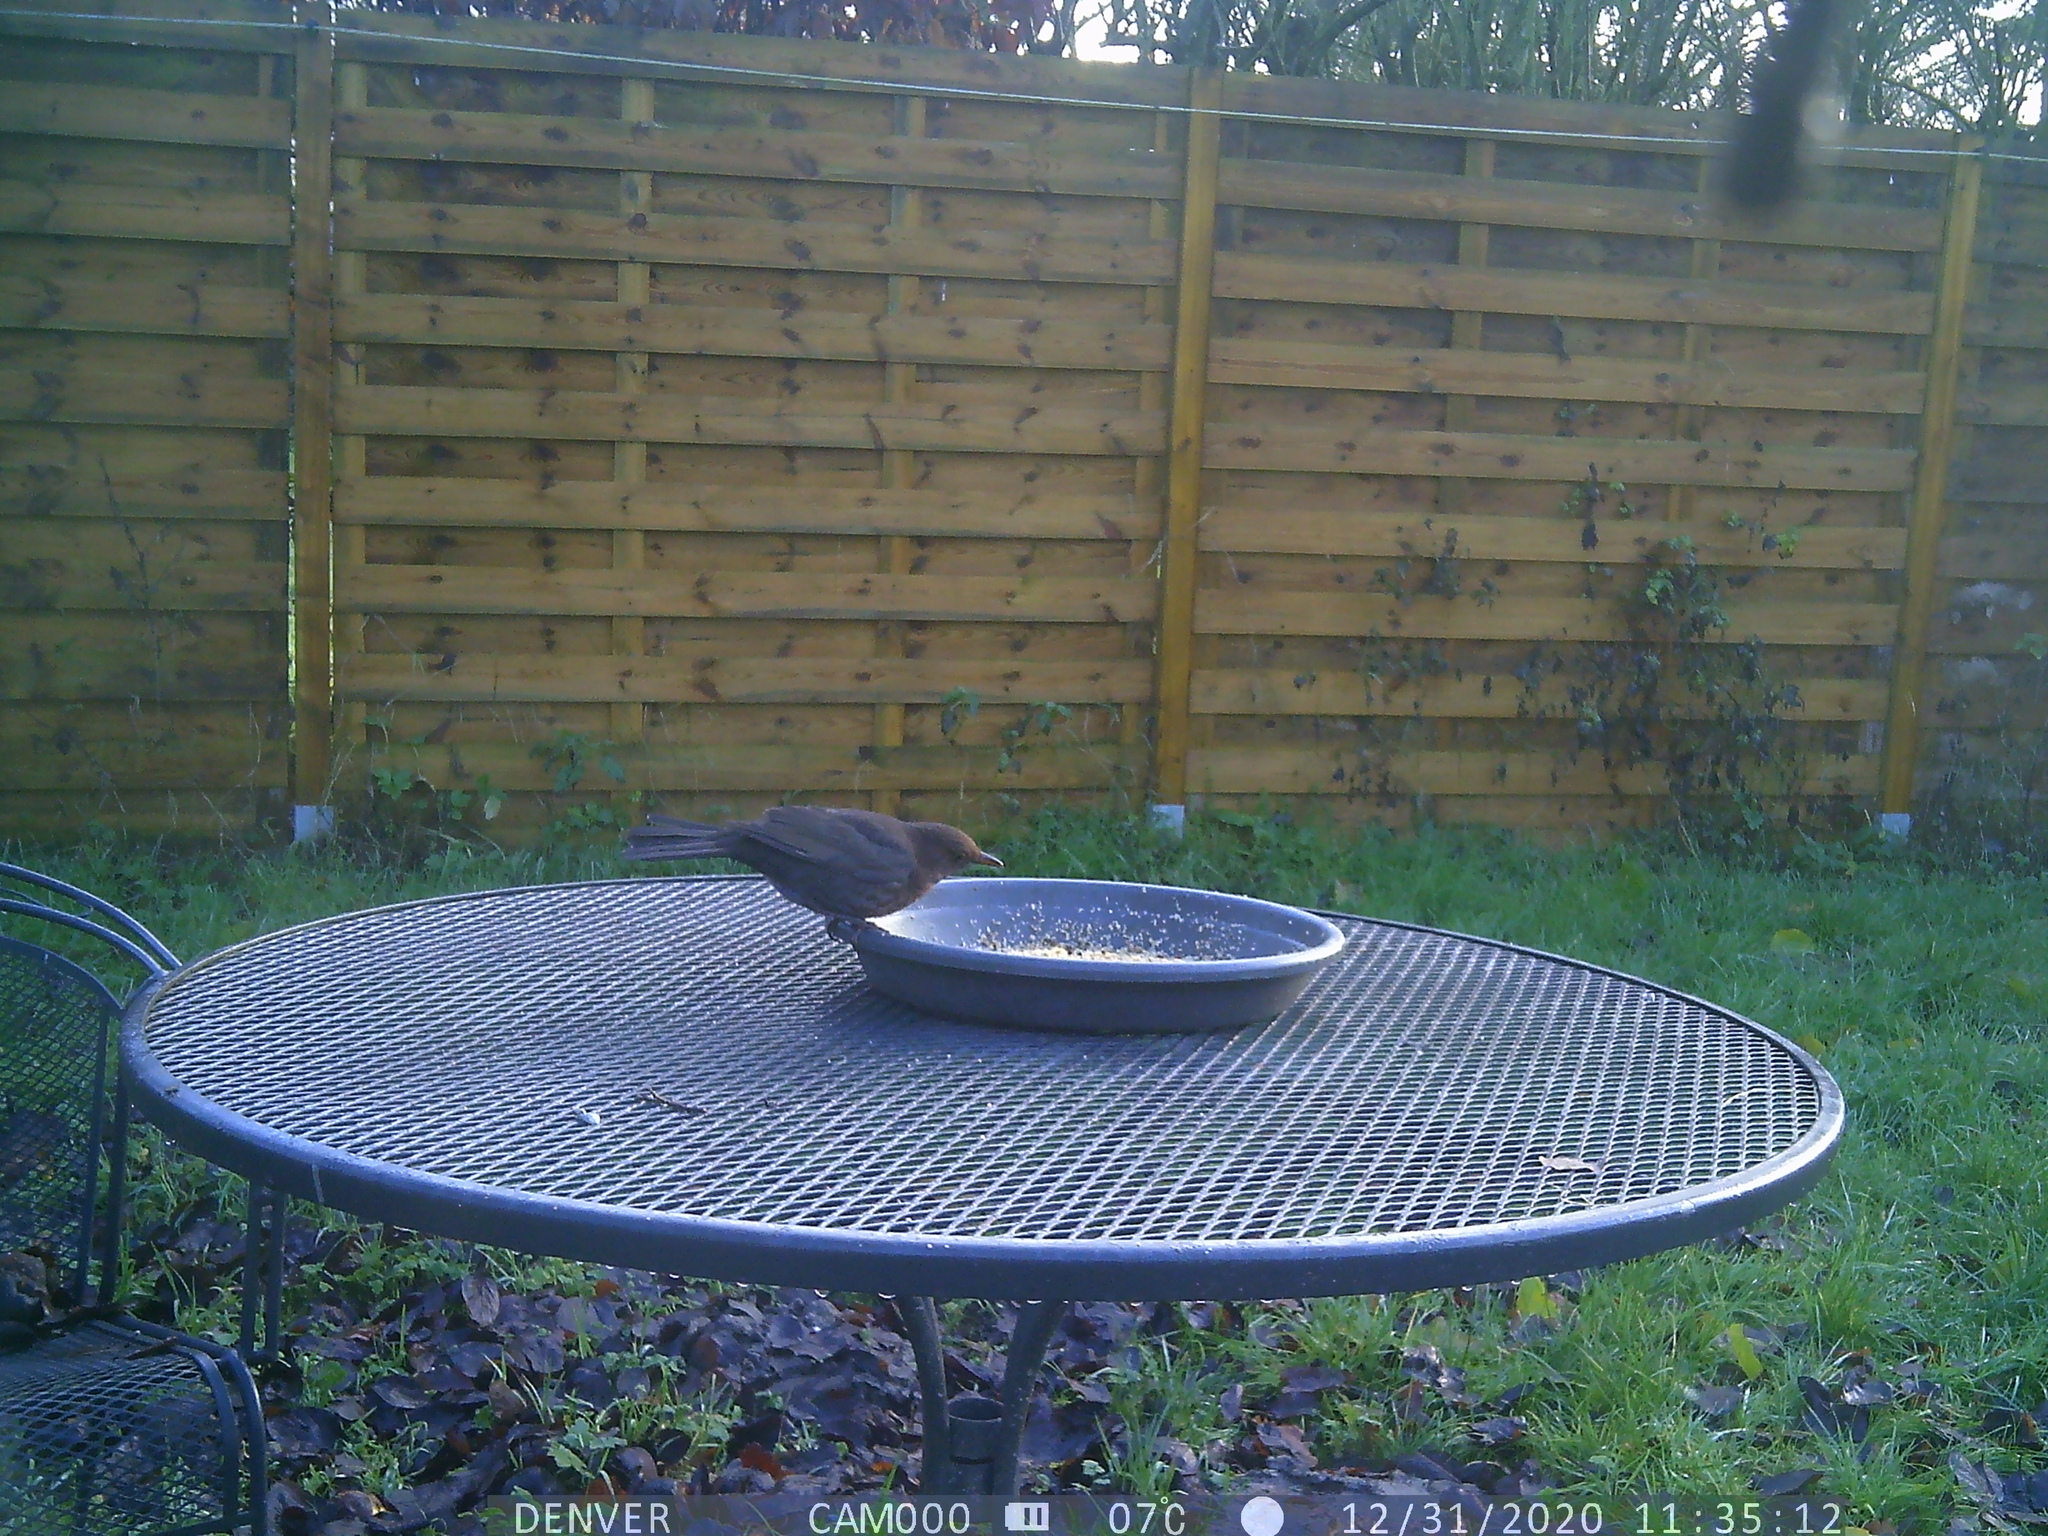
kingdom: Animalia
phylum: Chordata
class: Aves
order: Passeriformes
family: Turdidae
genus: Turdus
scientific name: Turdus merula
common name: Common blackbird
